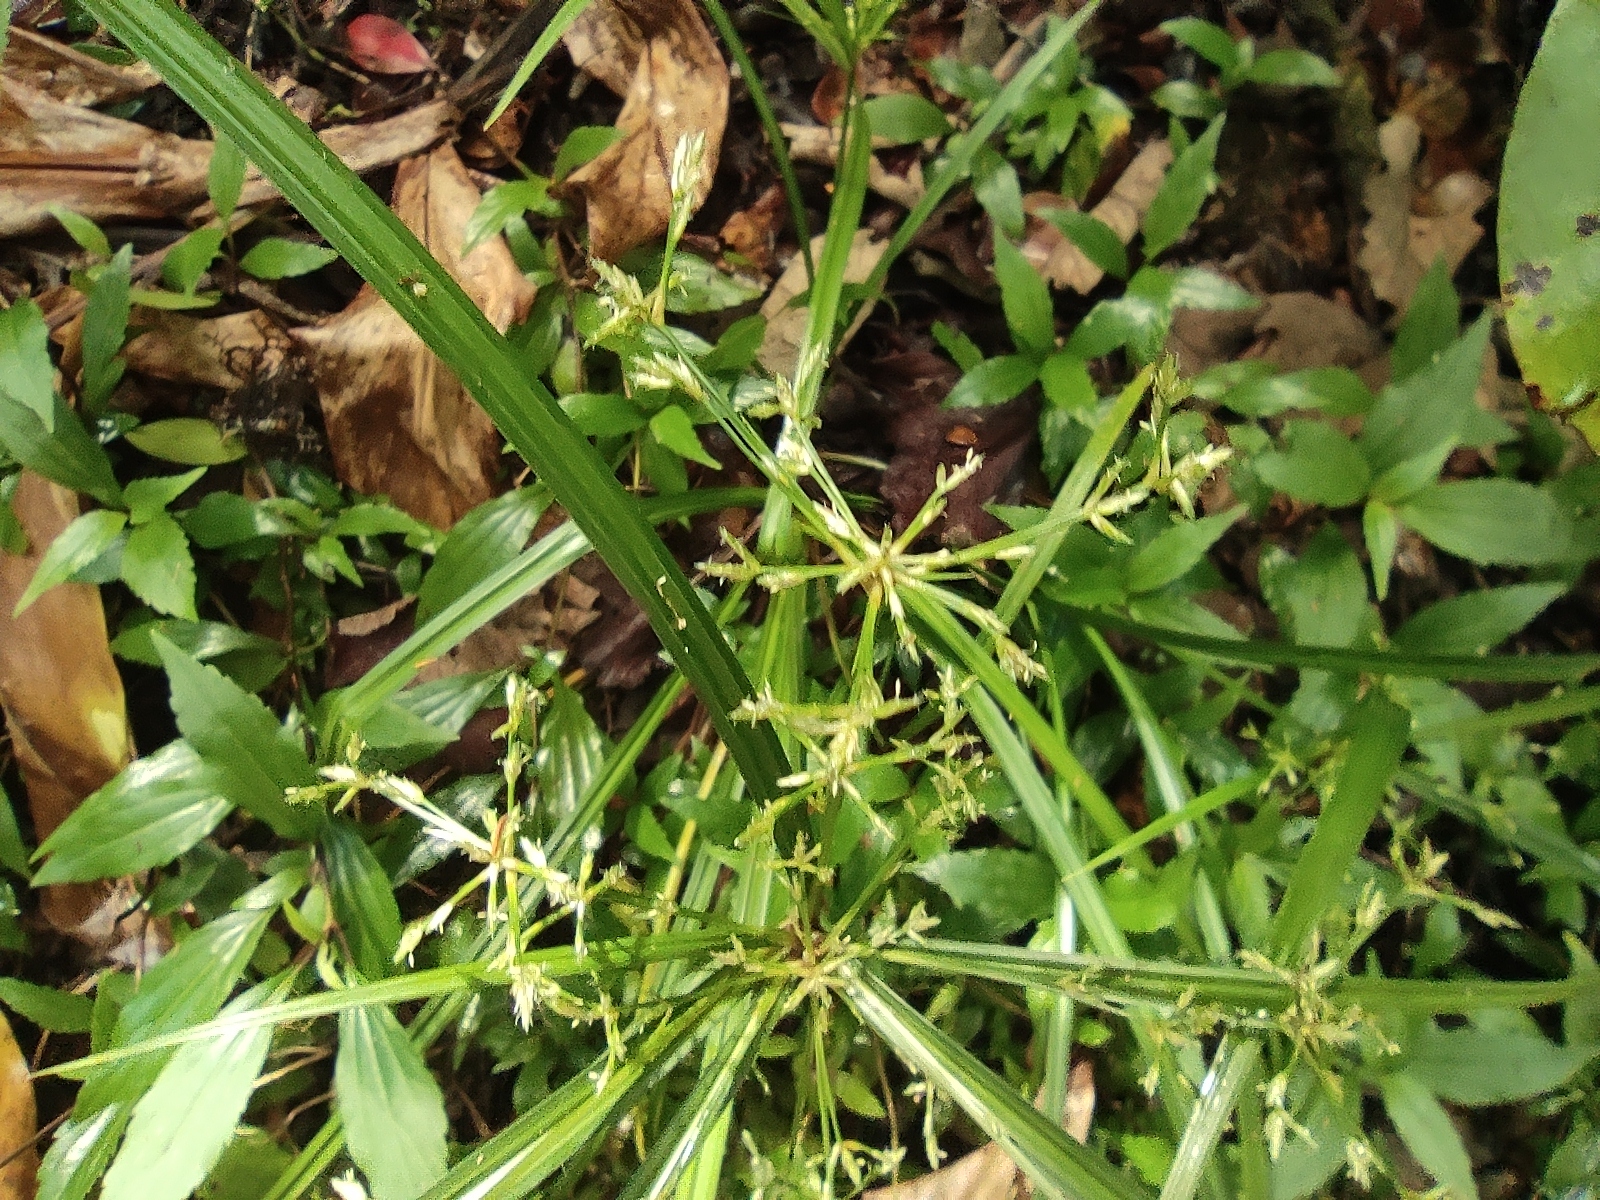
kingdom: Plantae
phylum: Tracheophyta
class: Liliopsida
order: Poales
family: Cyperaceae
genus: Cyperus
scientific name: Cyperus longifolius
